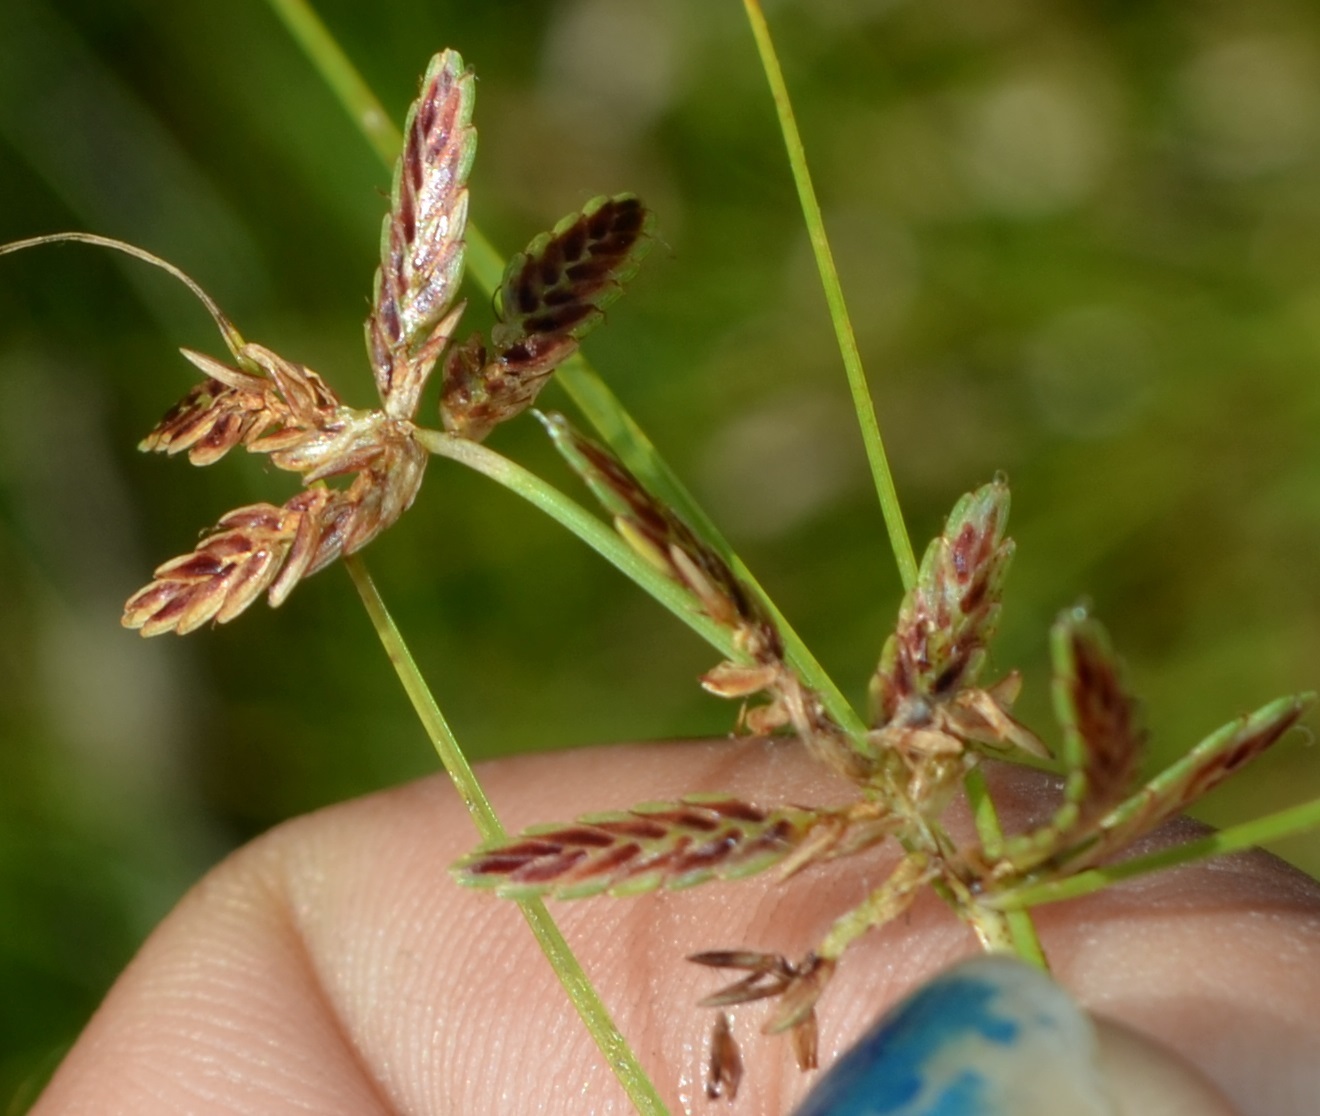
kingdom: Plantae
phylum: Tracheophyta
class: Liliopsida
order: Poales
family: Cyperaceae
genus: Cyperus
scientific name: Cyperus bipartitus
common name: Brook flatsedge
